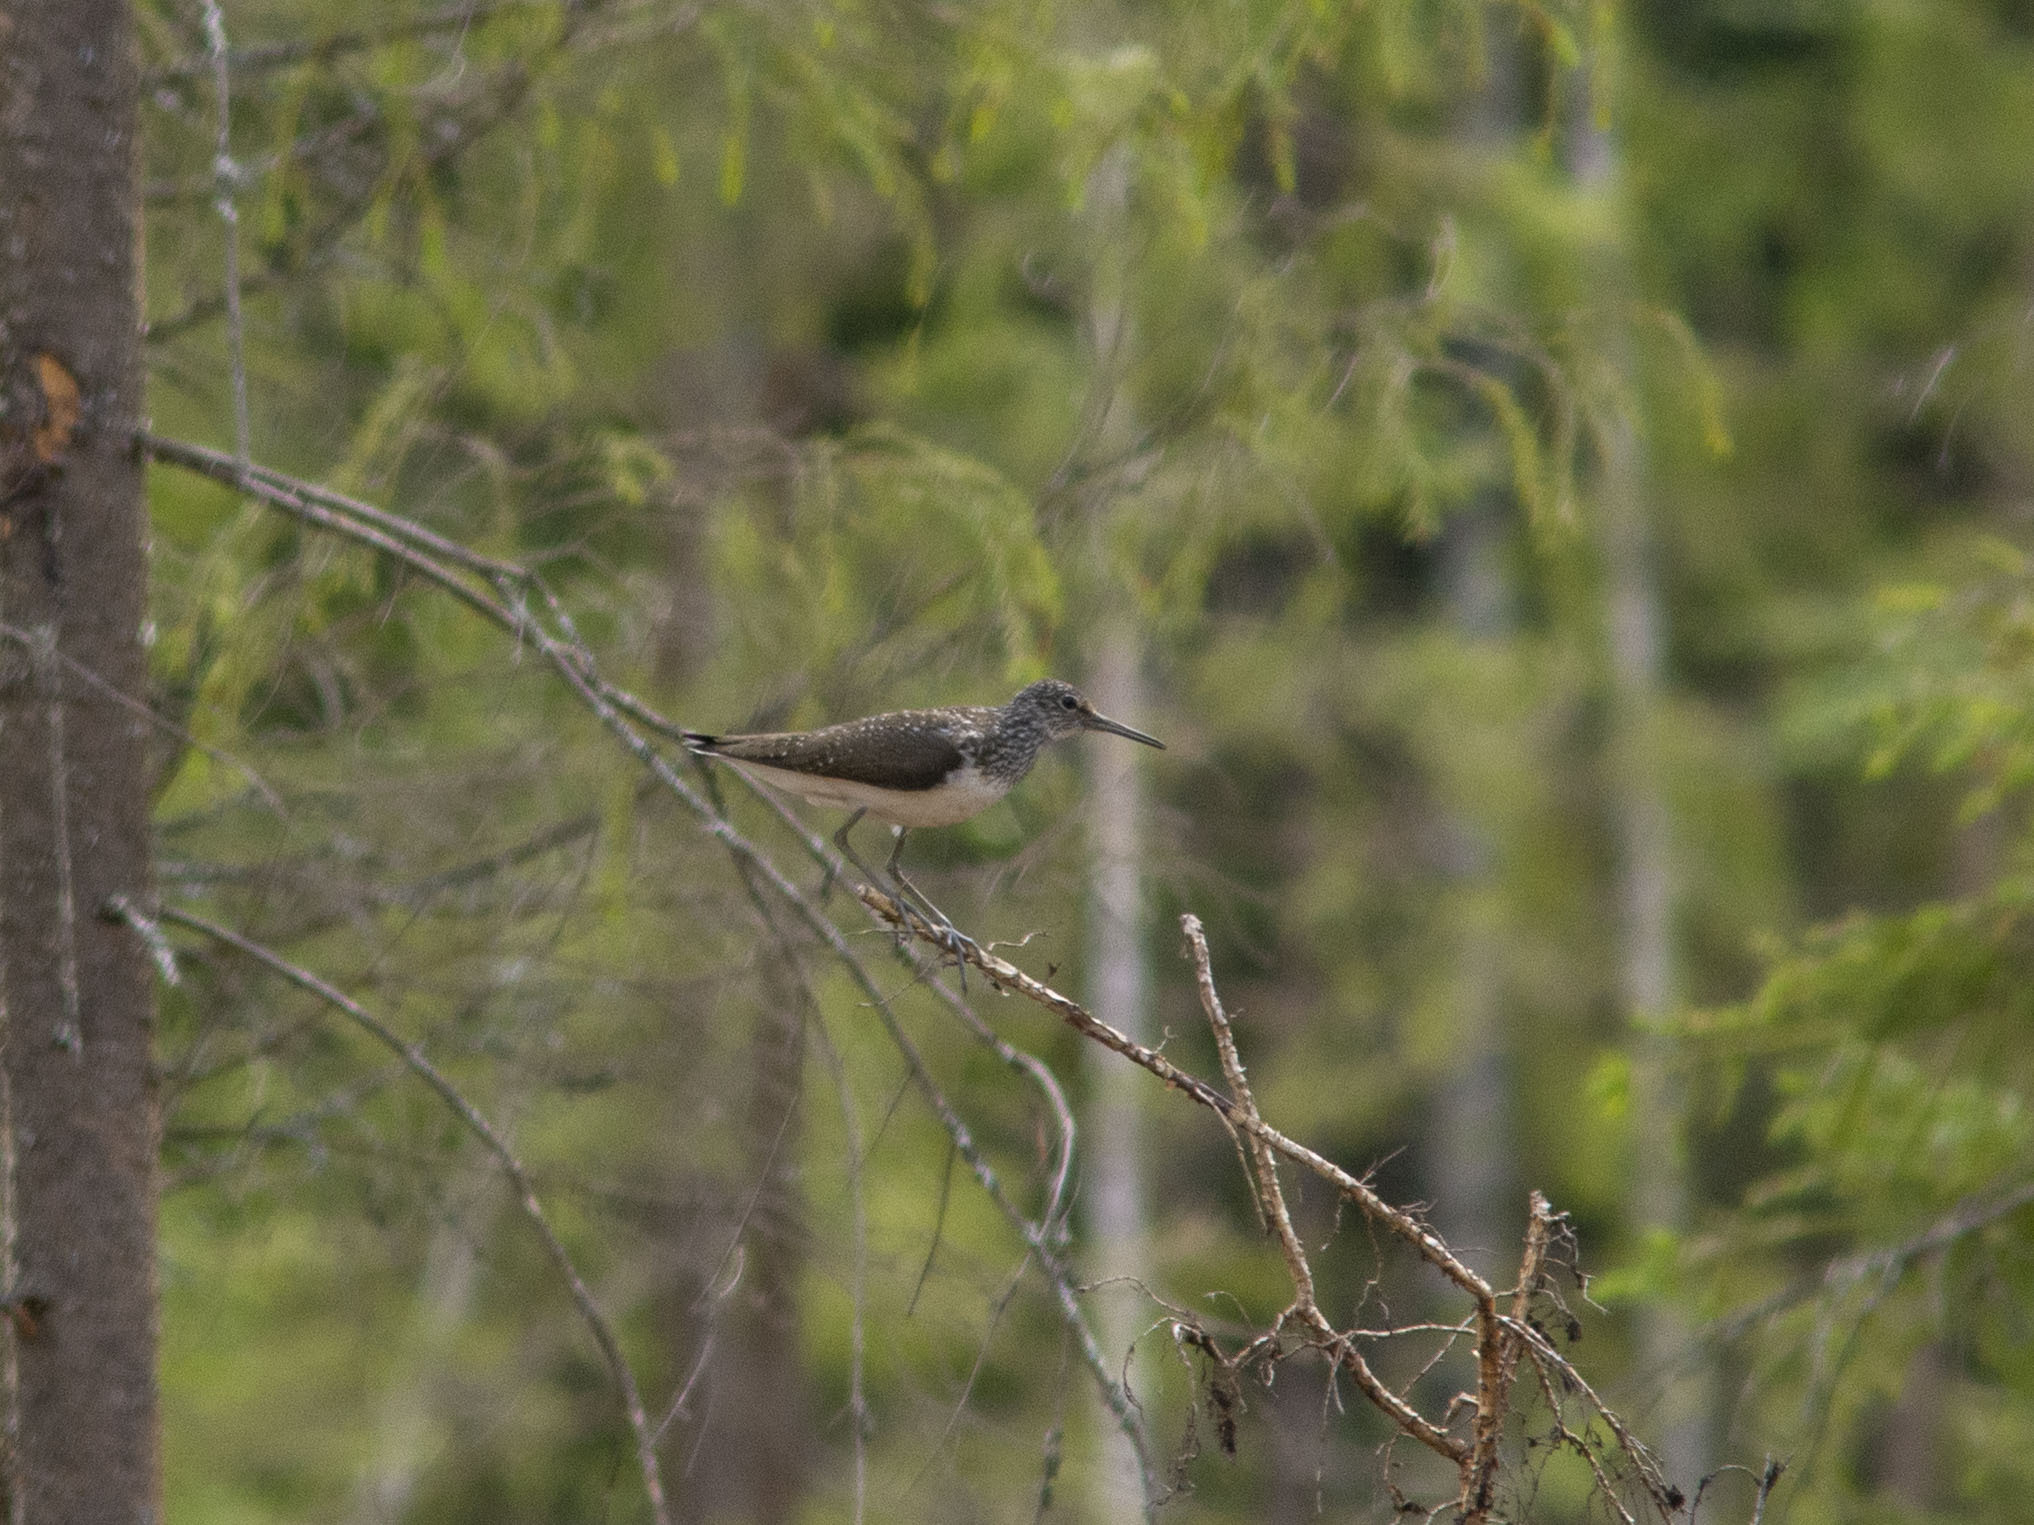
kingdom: Animalia
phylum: Chordata
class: Aves
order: Charadriiformes
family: Scolopacidae
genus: Tringa
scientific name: Tringa ochropus
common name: Green sandpiper
